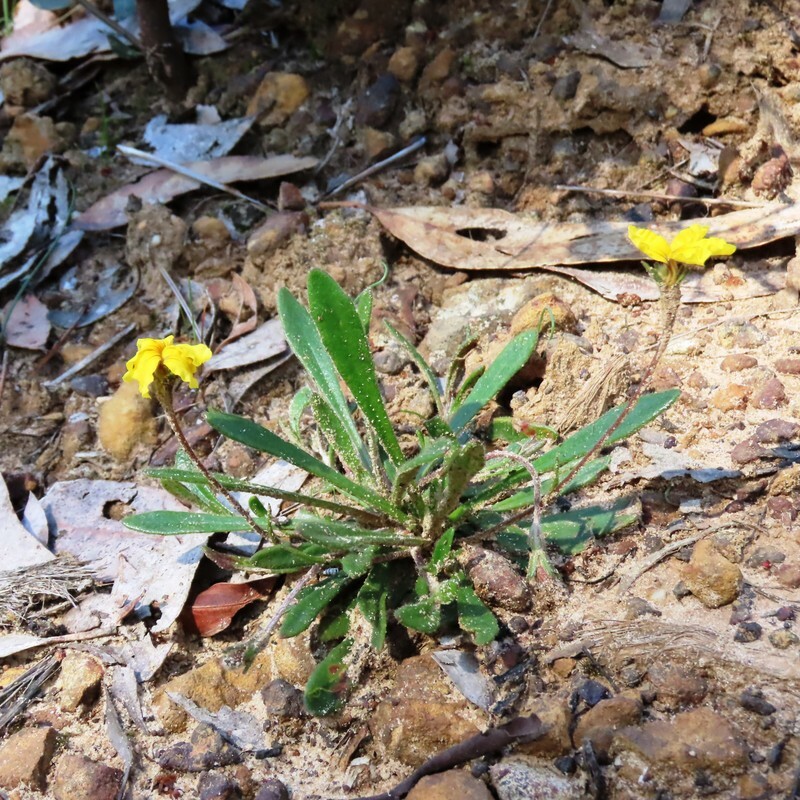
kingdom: Plantae
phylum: Tracheophyta
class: Magnoliopsida
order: Asterales
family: Goodeniaceae
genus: Goodenia
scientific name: Goodenia geniculata
